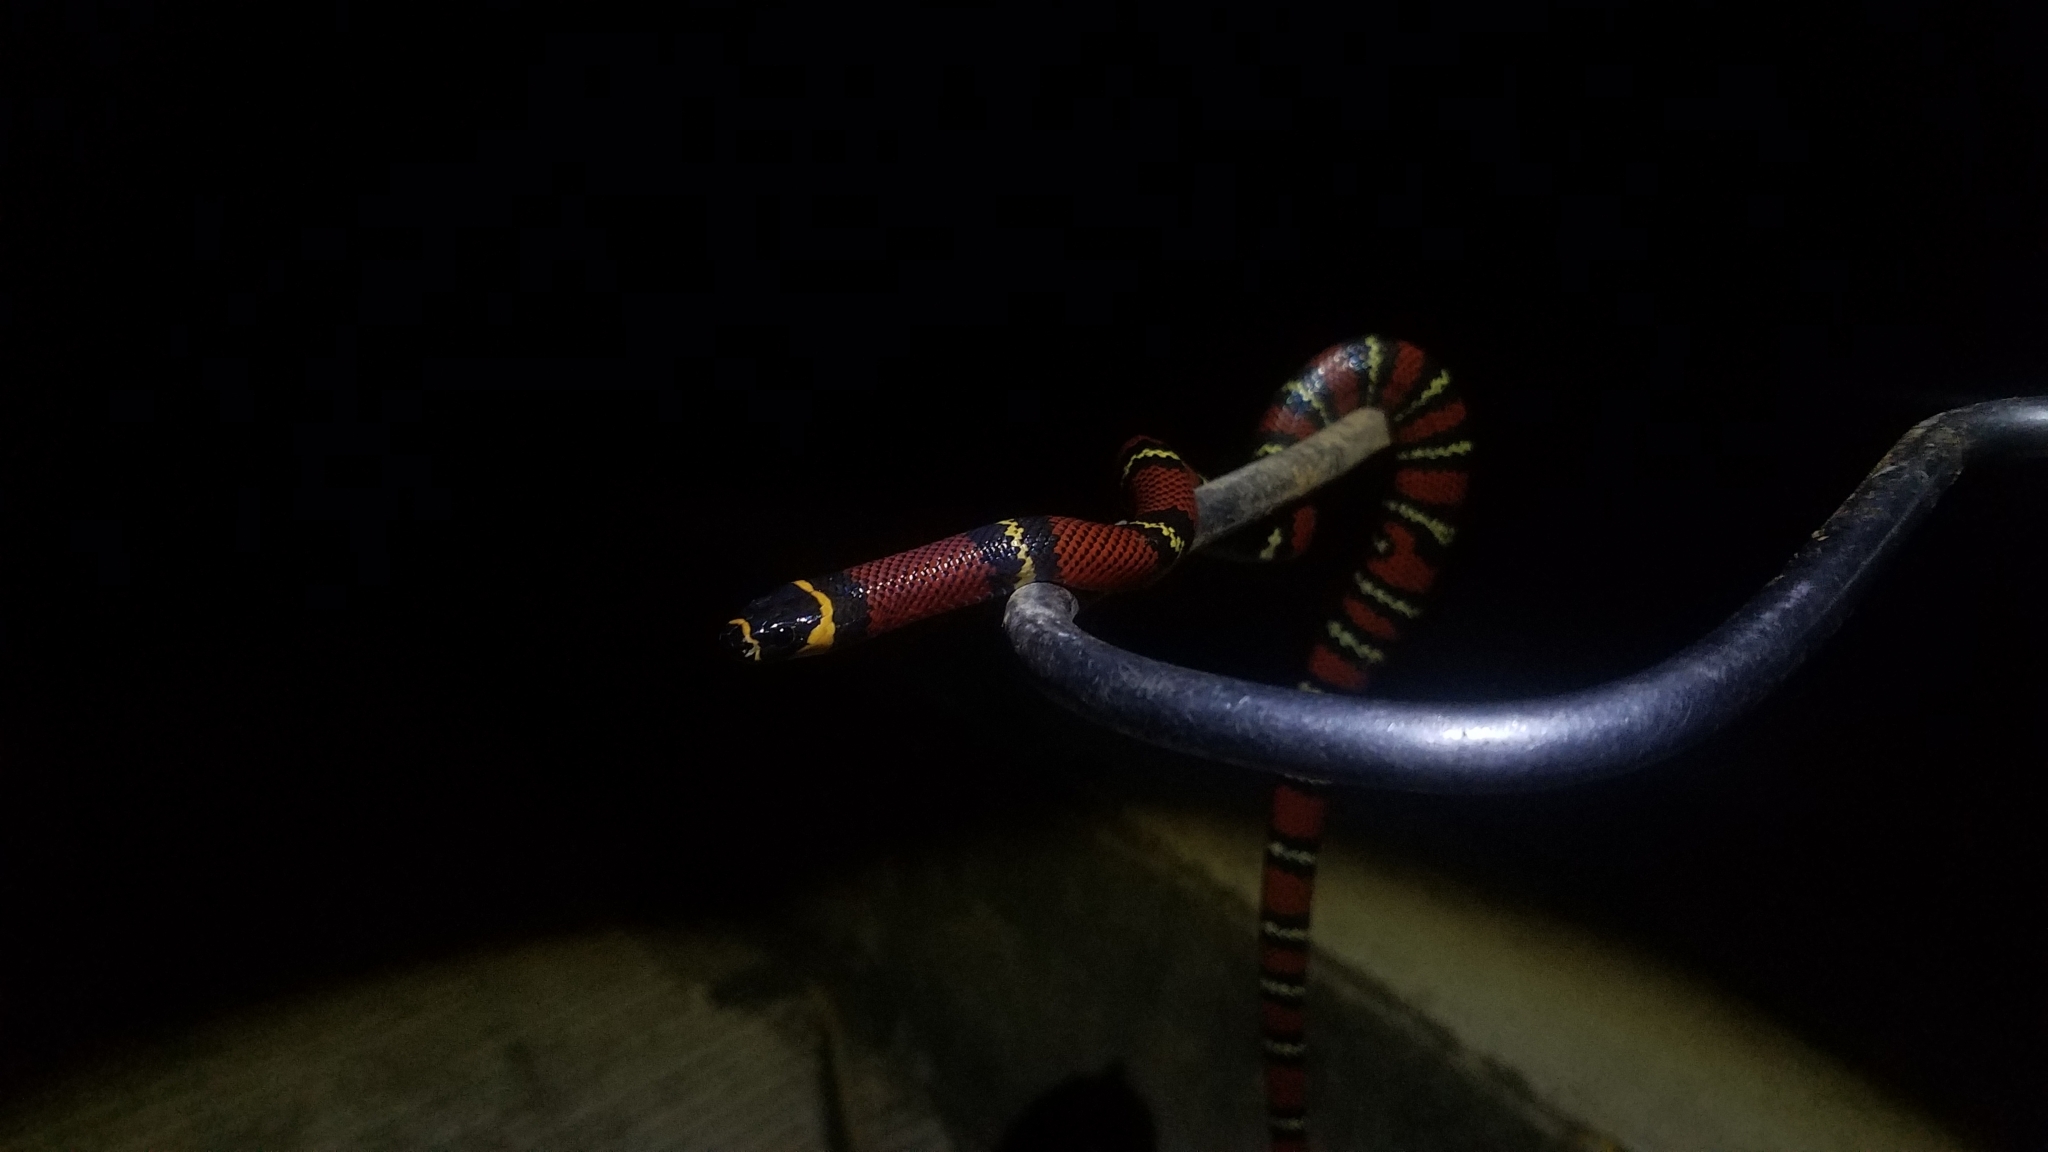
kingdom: Animalia
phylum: Chordata
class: Squamata
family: Colubridae
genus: Lampropeltis
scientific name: Lampropeltis polyzona
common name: Atlantic central american milksnake
